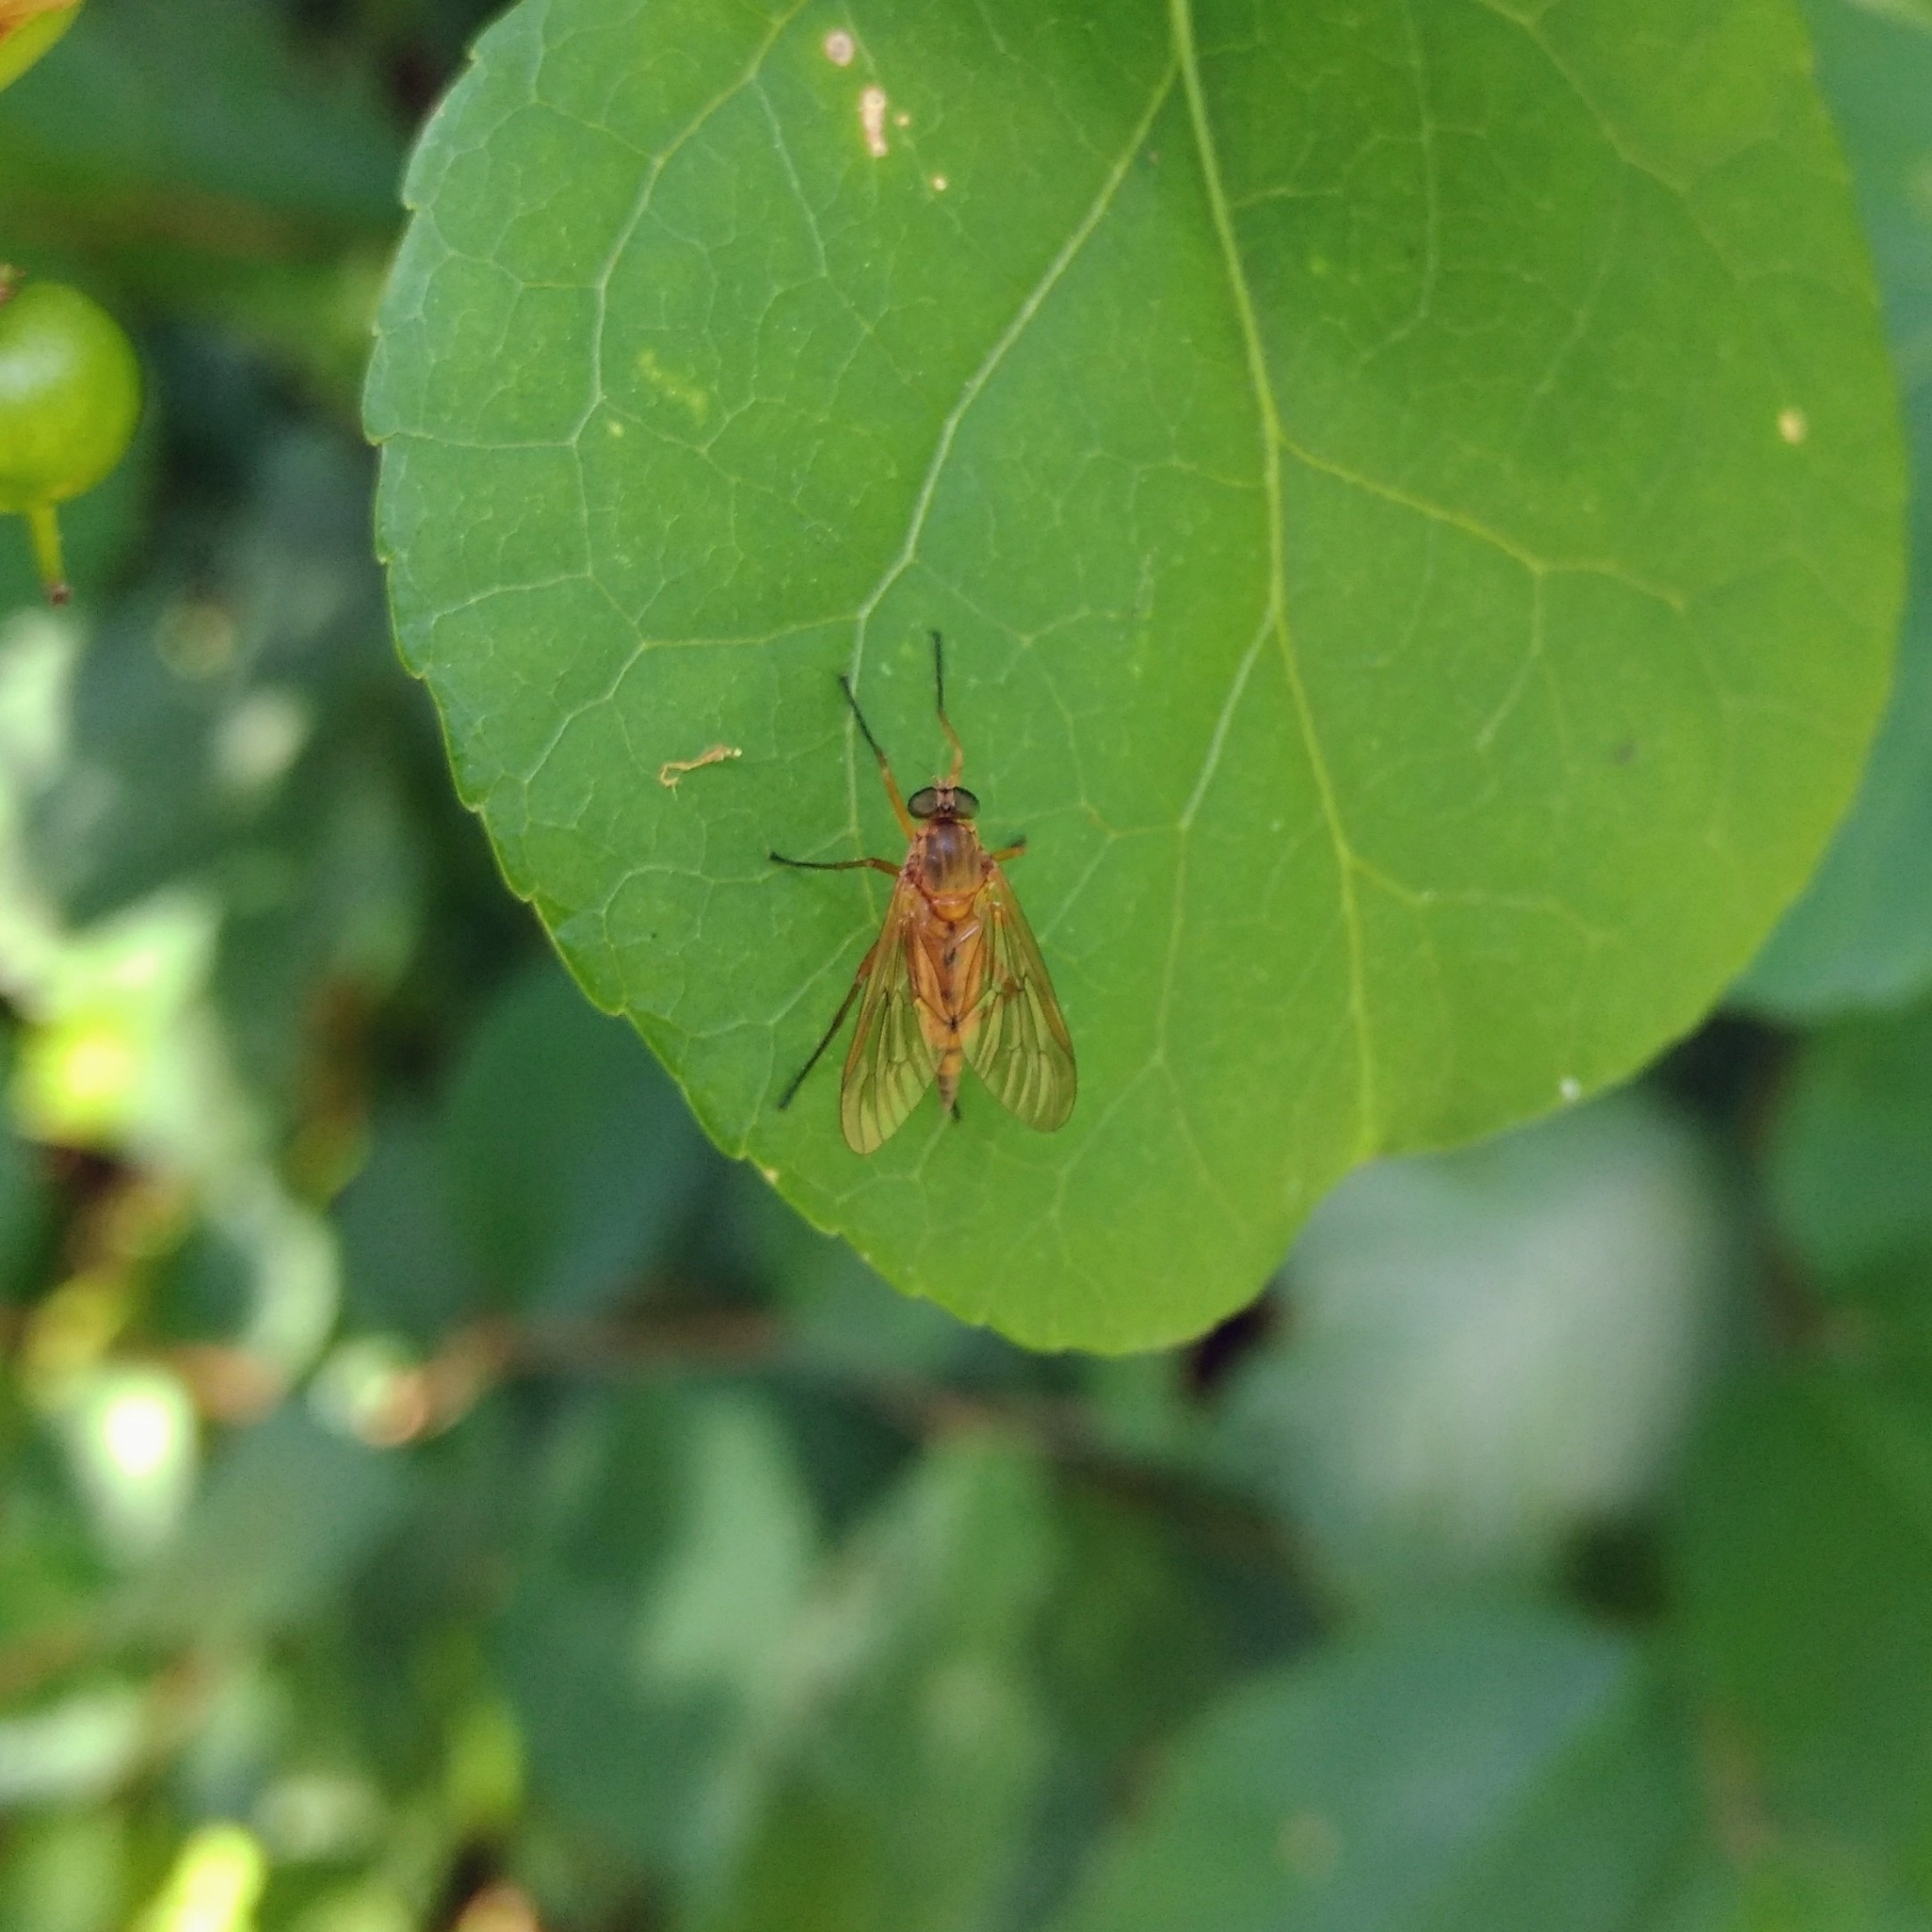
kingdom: Animalia
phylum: Arthropoda
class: Insecta
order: Diptera
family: Rhagionidae
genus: Rhagio
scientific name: Rhagio tringaria
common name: Marsh snipefly
